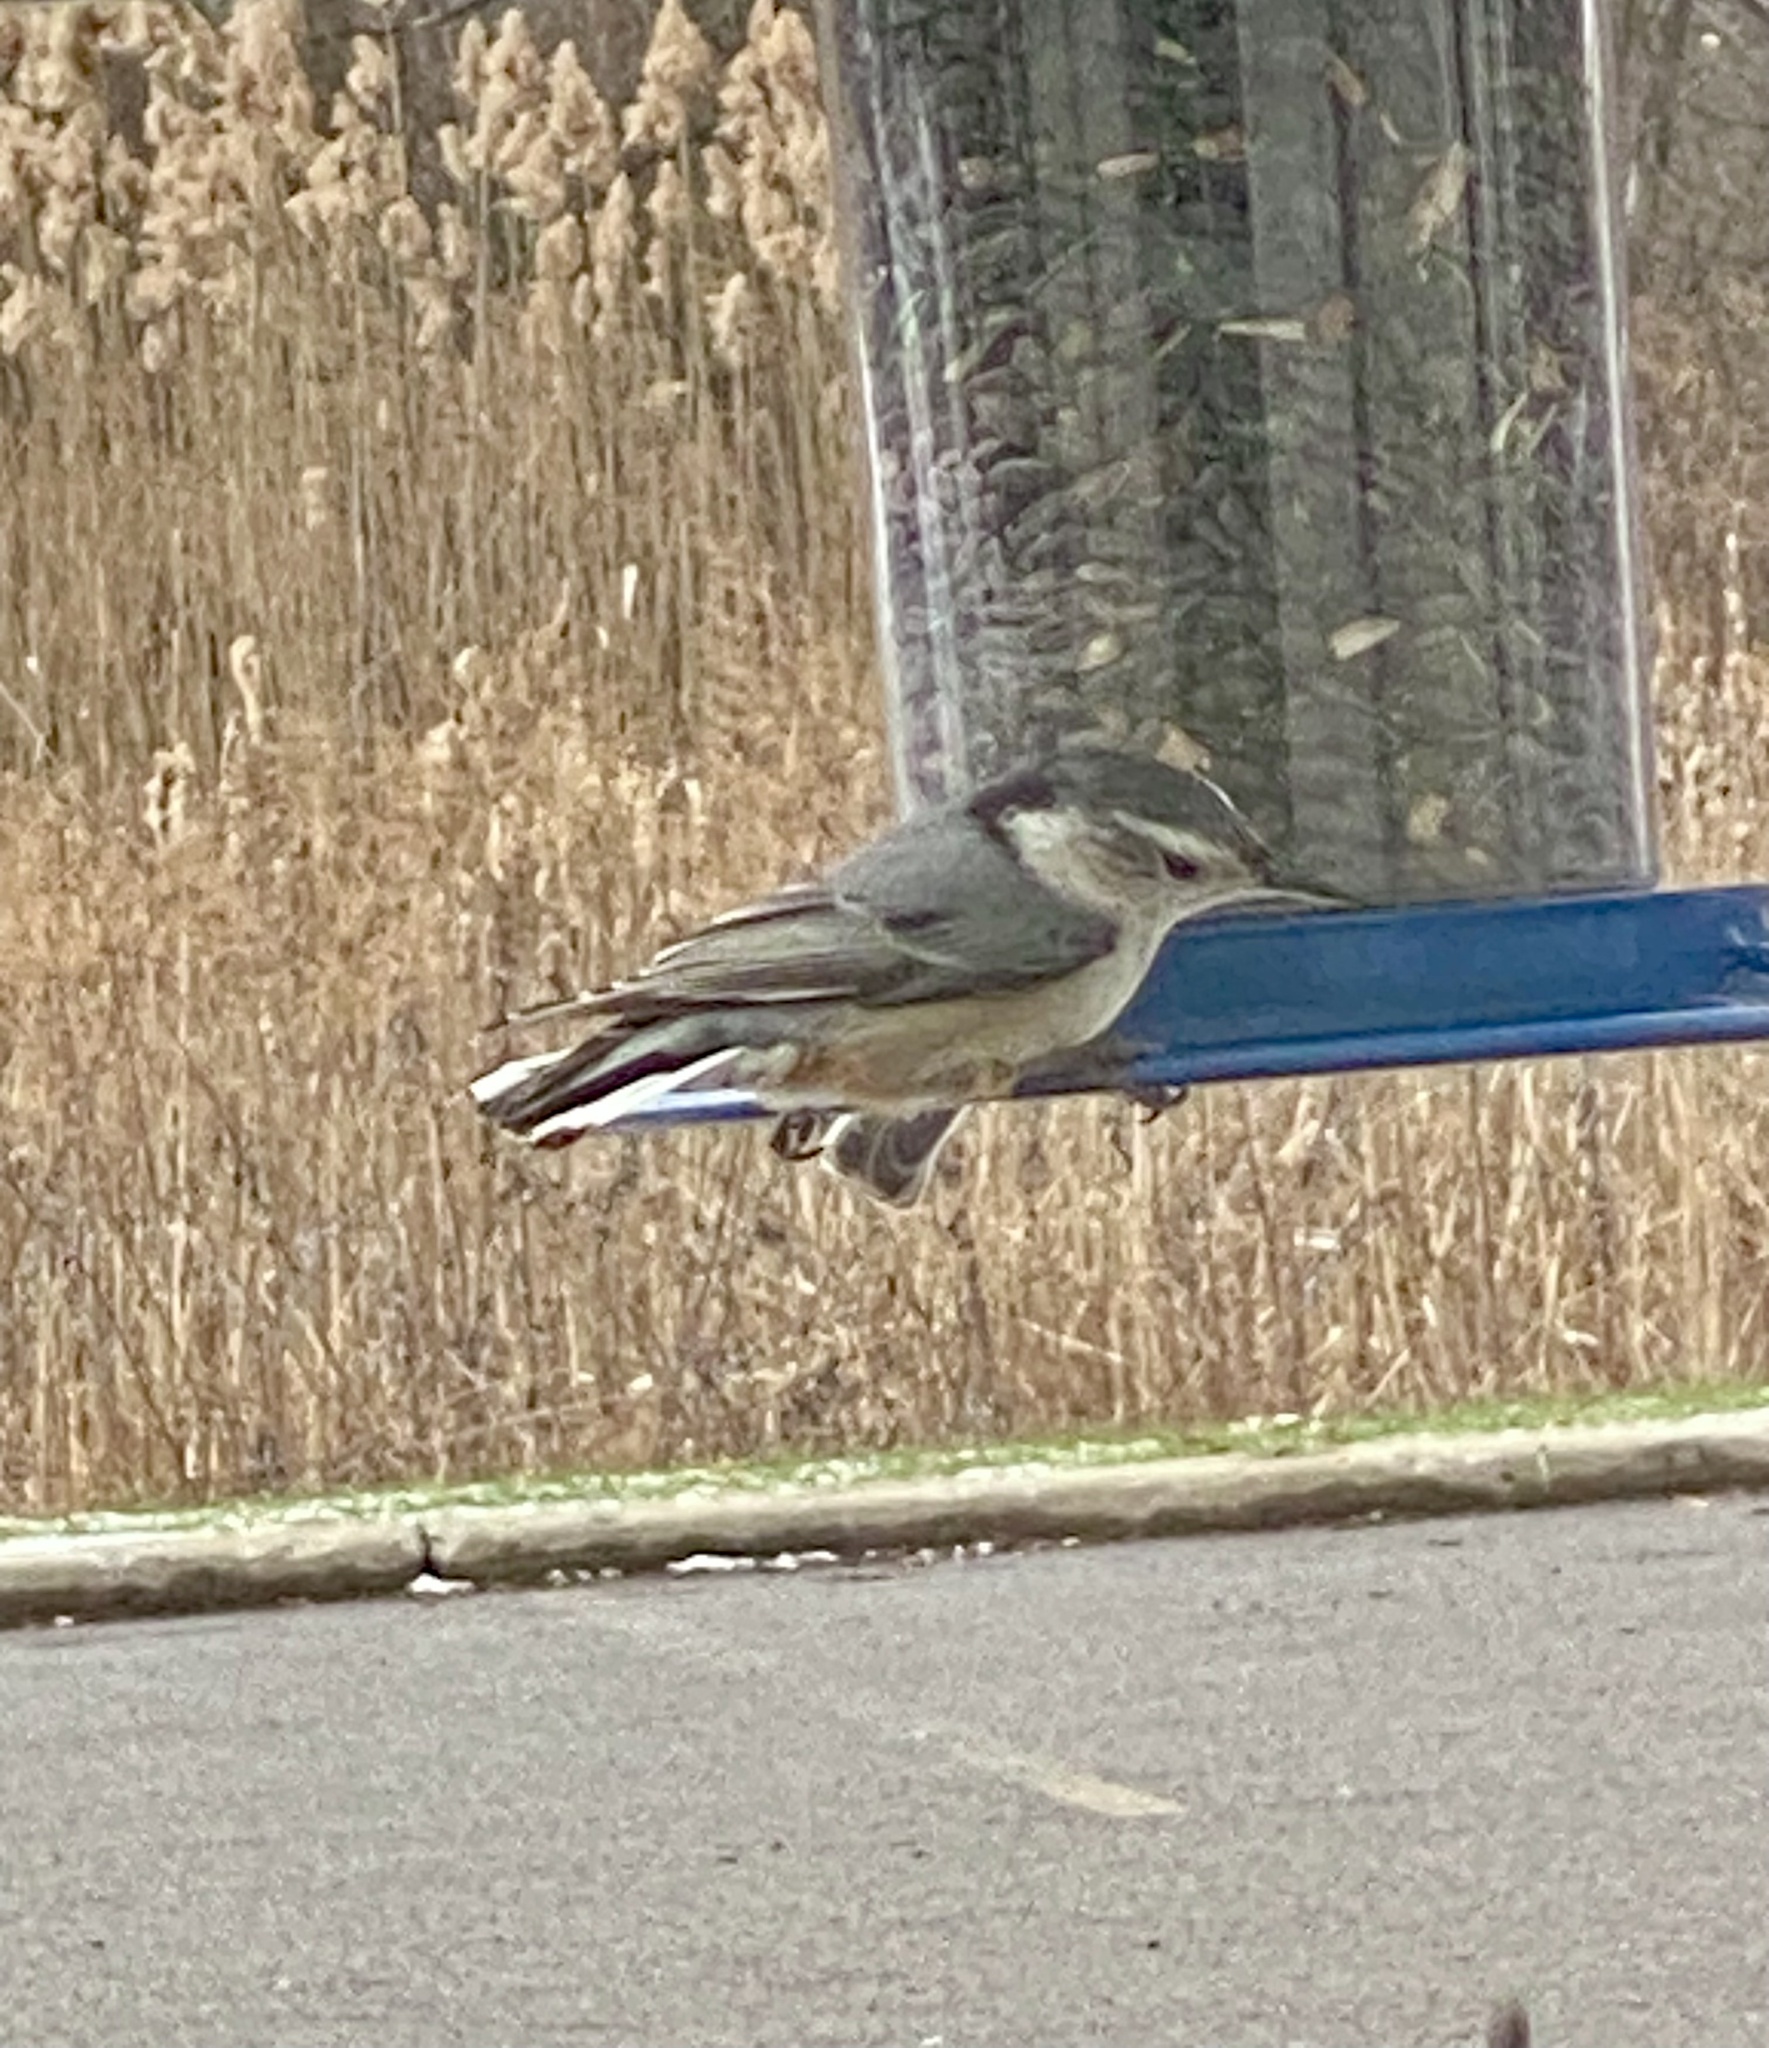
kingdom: Animalia
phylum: Chordata
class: Aves
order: Passeriformes
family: Sittidae
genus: Sitta
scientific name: Sitta carolinensis
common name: White-breasted nuthatch
